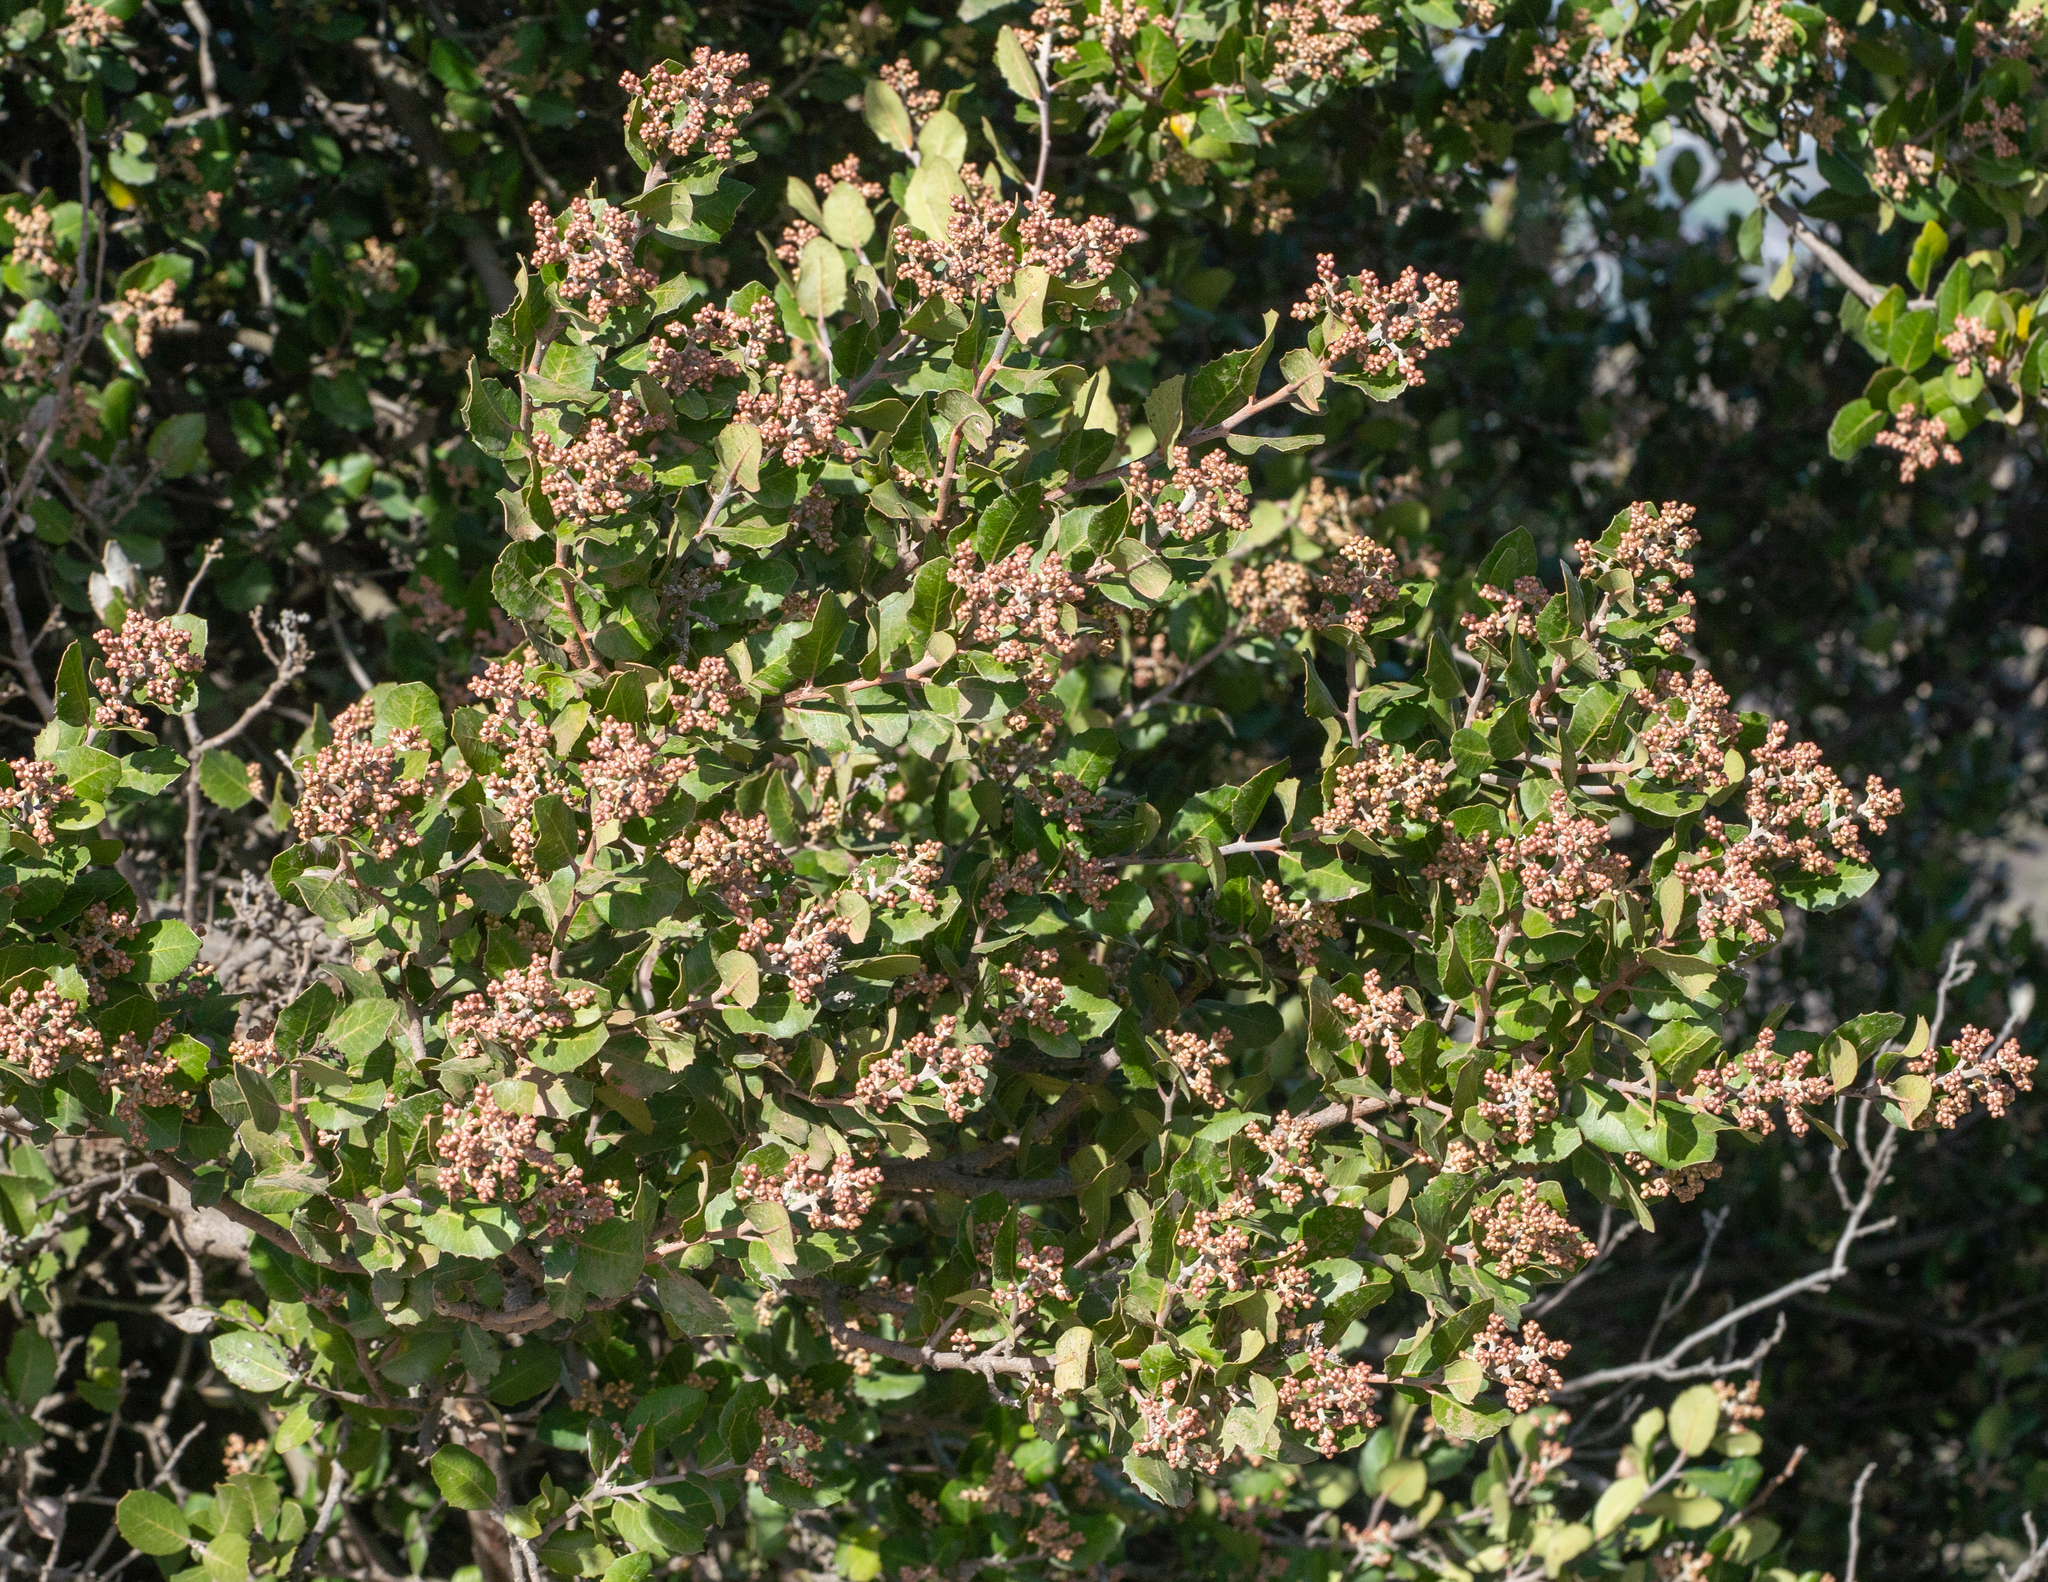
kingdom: Plantae
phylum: Tracheophyta
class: Magnoliopsida
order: Sapindales
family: Anacardiaceae
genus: Rhus
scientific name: Rhus integrifolia
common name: Lemonade sumac
